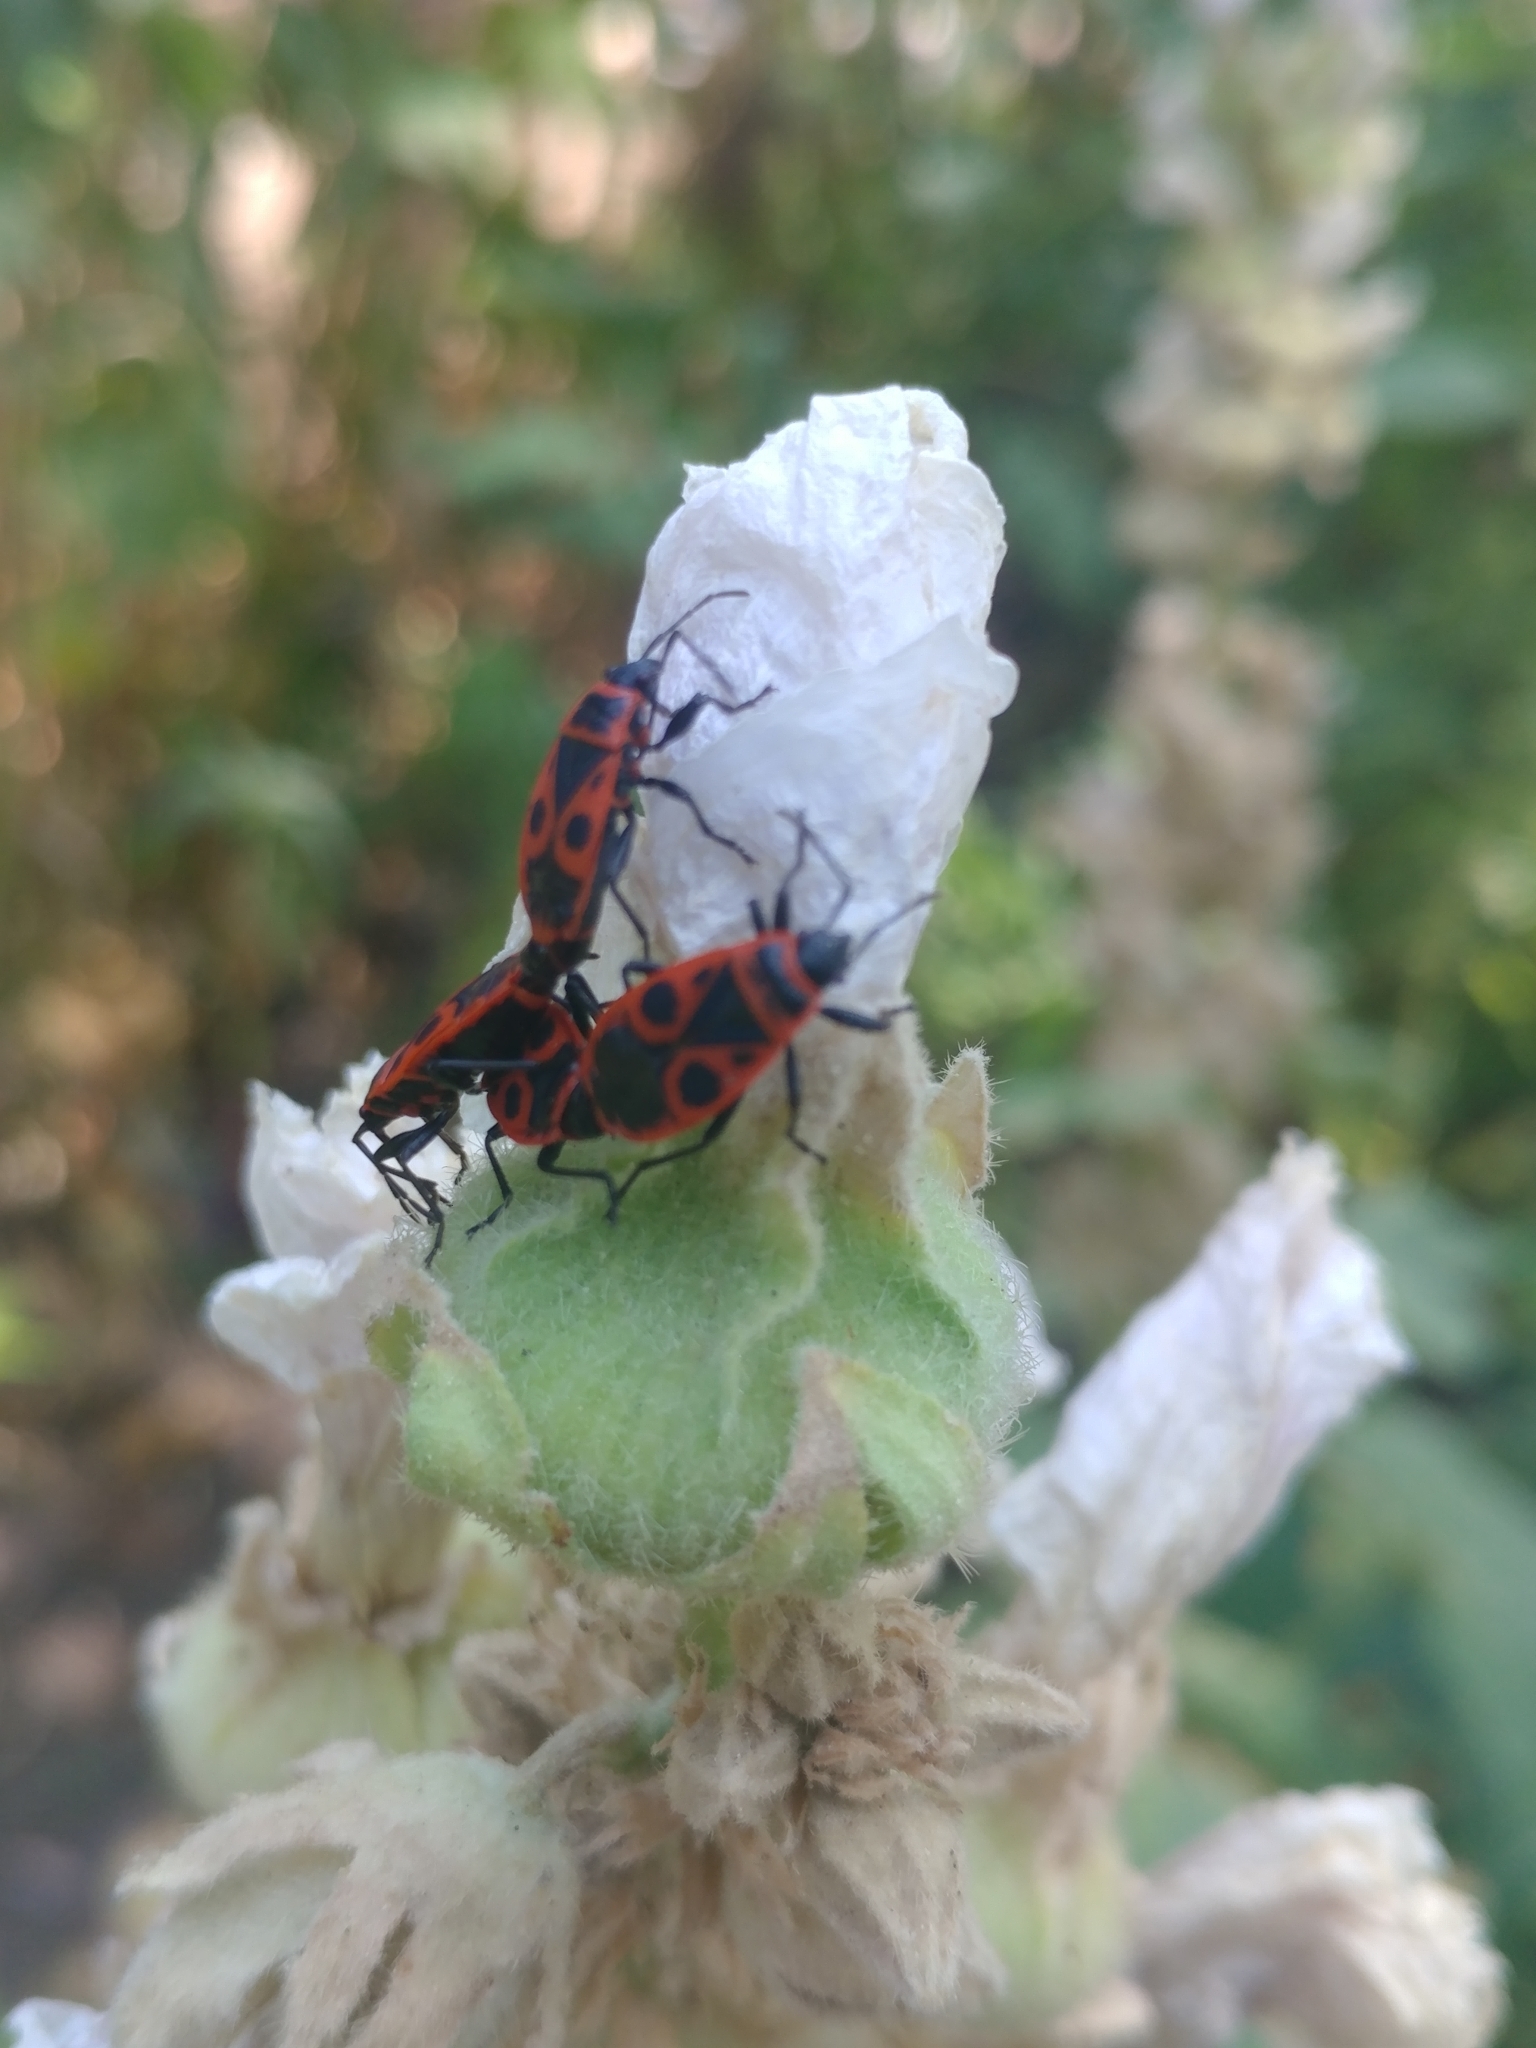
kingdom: Animalia
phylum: Arthropoda
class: Insecta
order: Hemiptera
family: Pyrrhocoridae
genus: Pyrrhocoris
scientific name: Pyrrhocoris apterus
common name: Firebug
